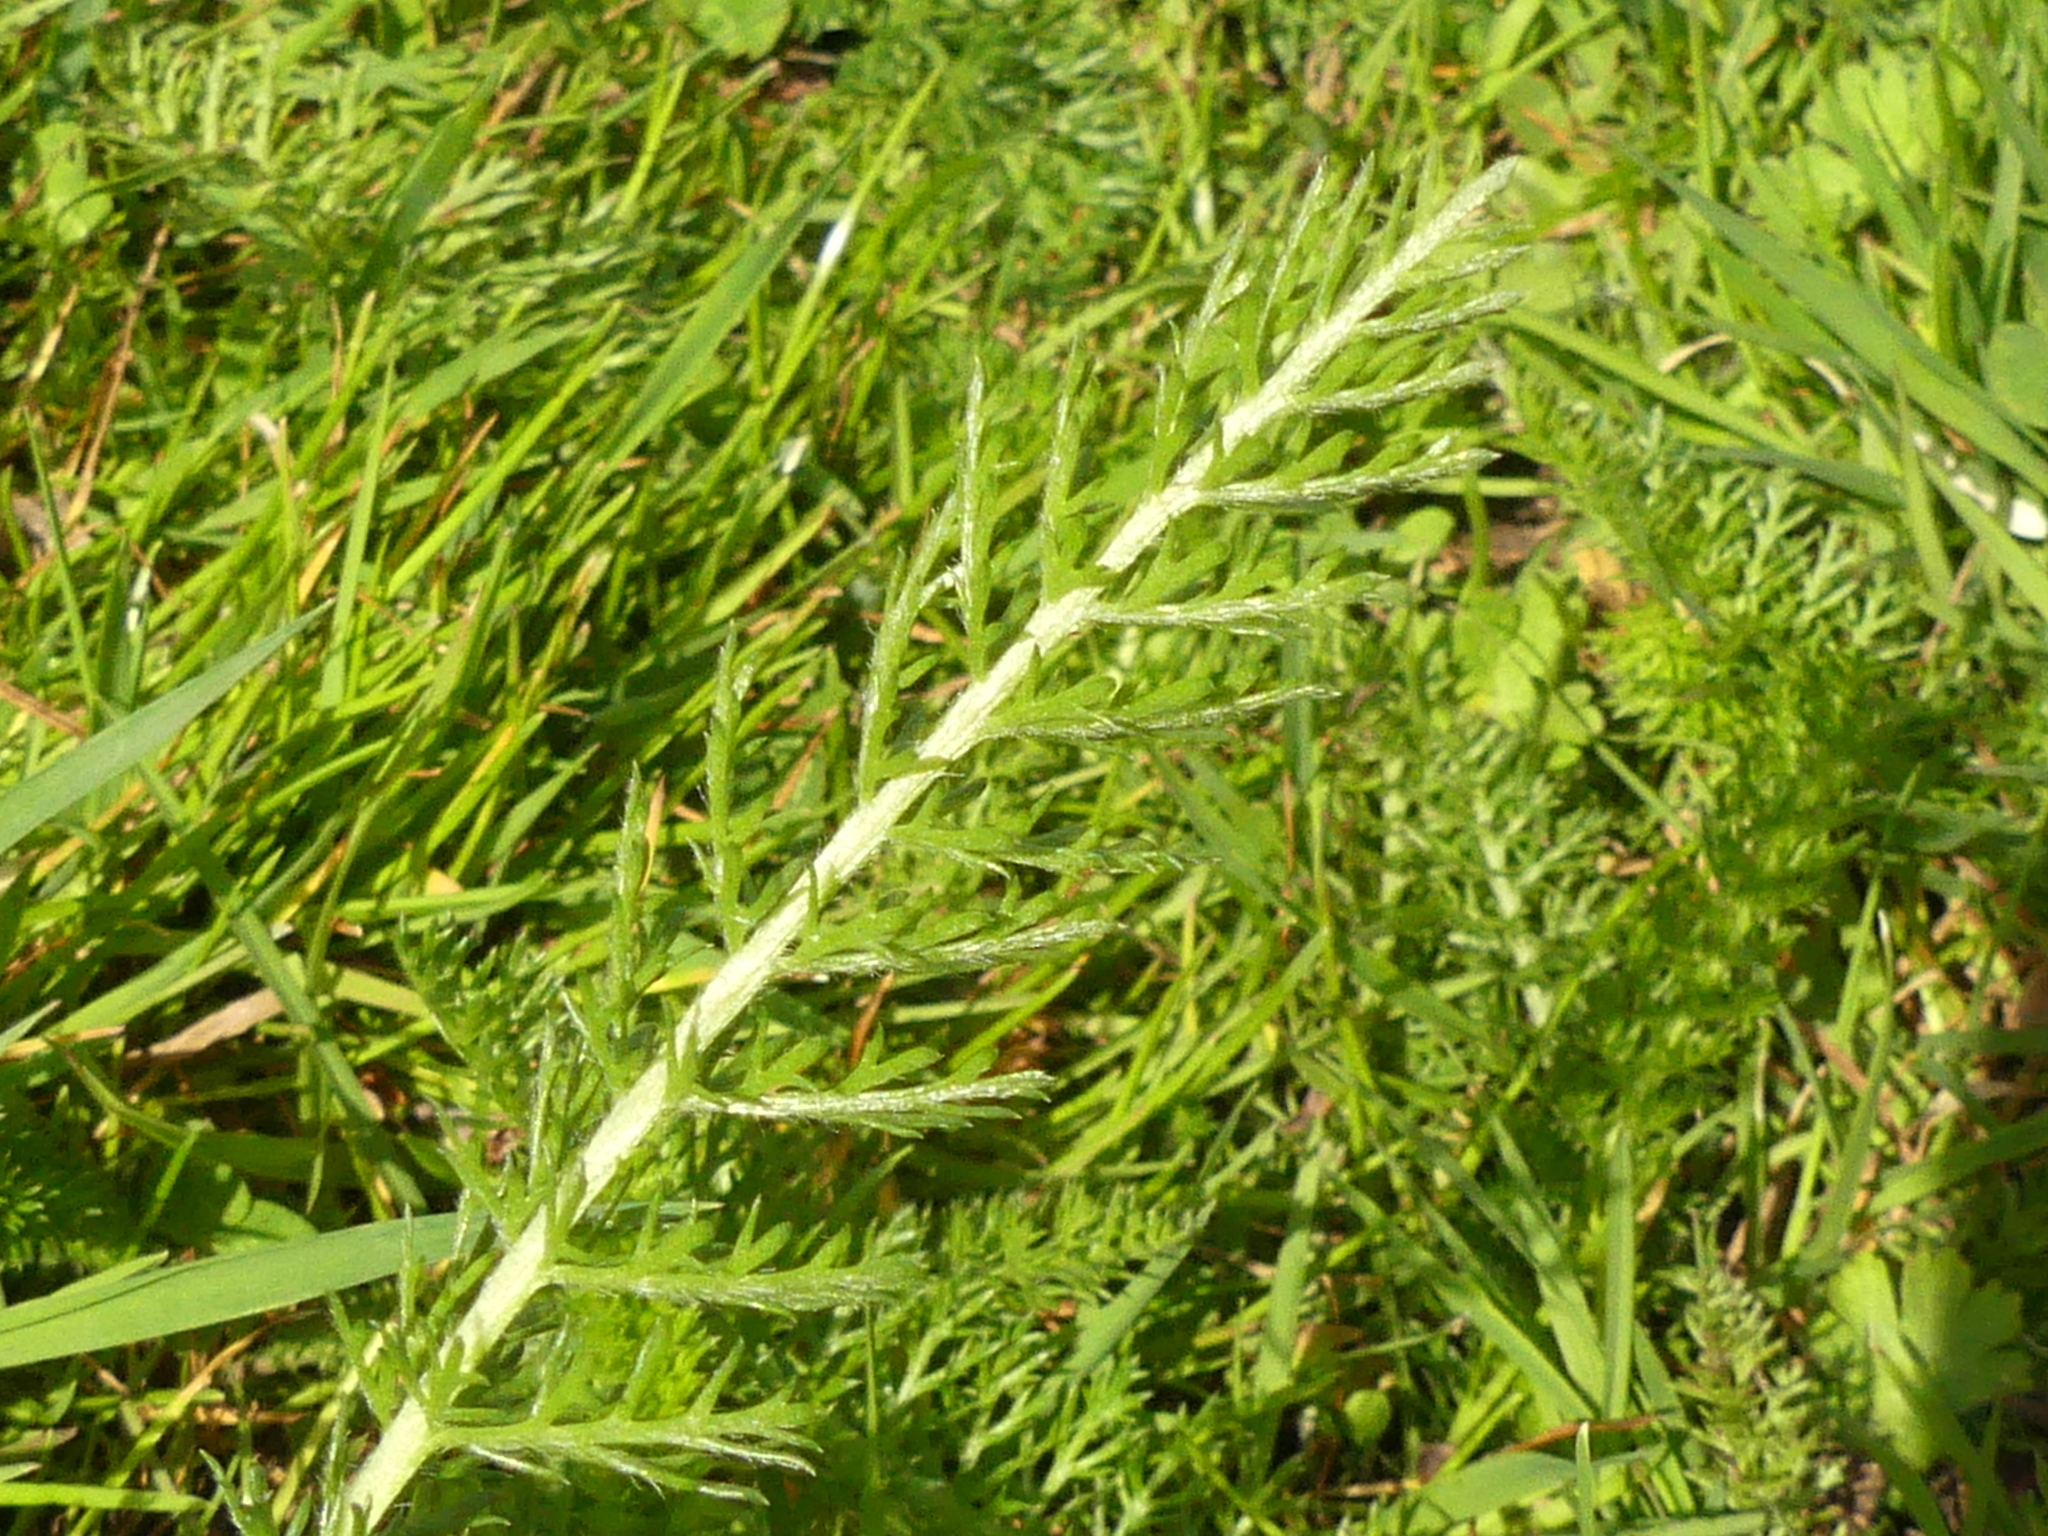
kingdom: Plantae
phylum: Tracheophyta
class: Magnoliopsida
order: Asterales
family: Asteraceae
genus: Achillea
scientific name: Achillea millefolium
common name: Yarrow
